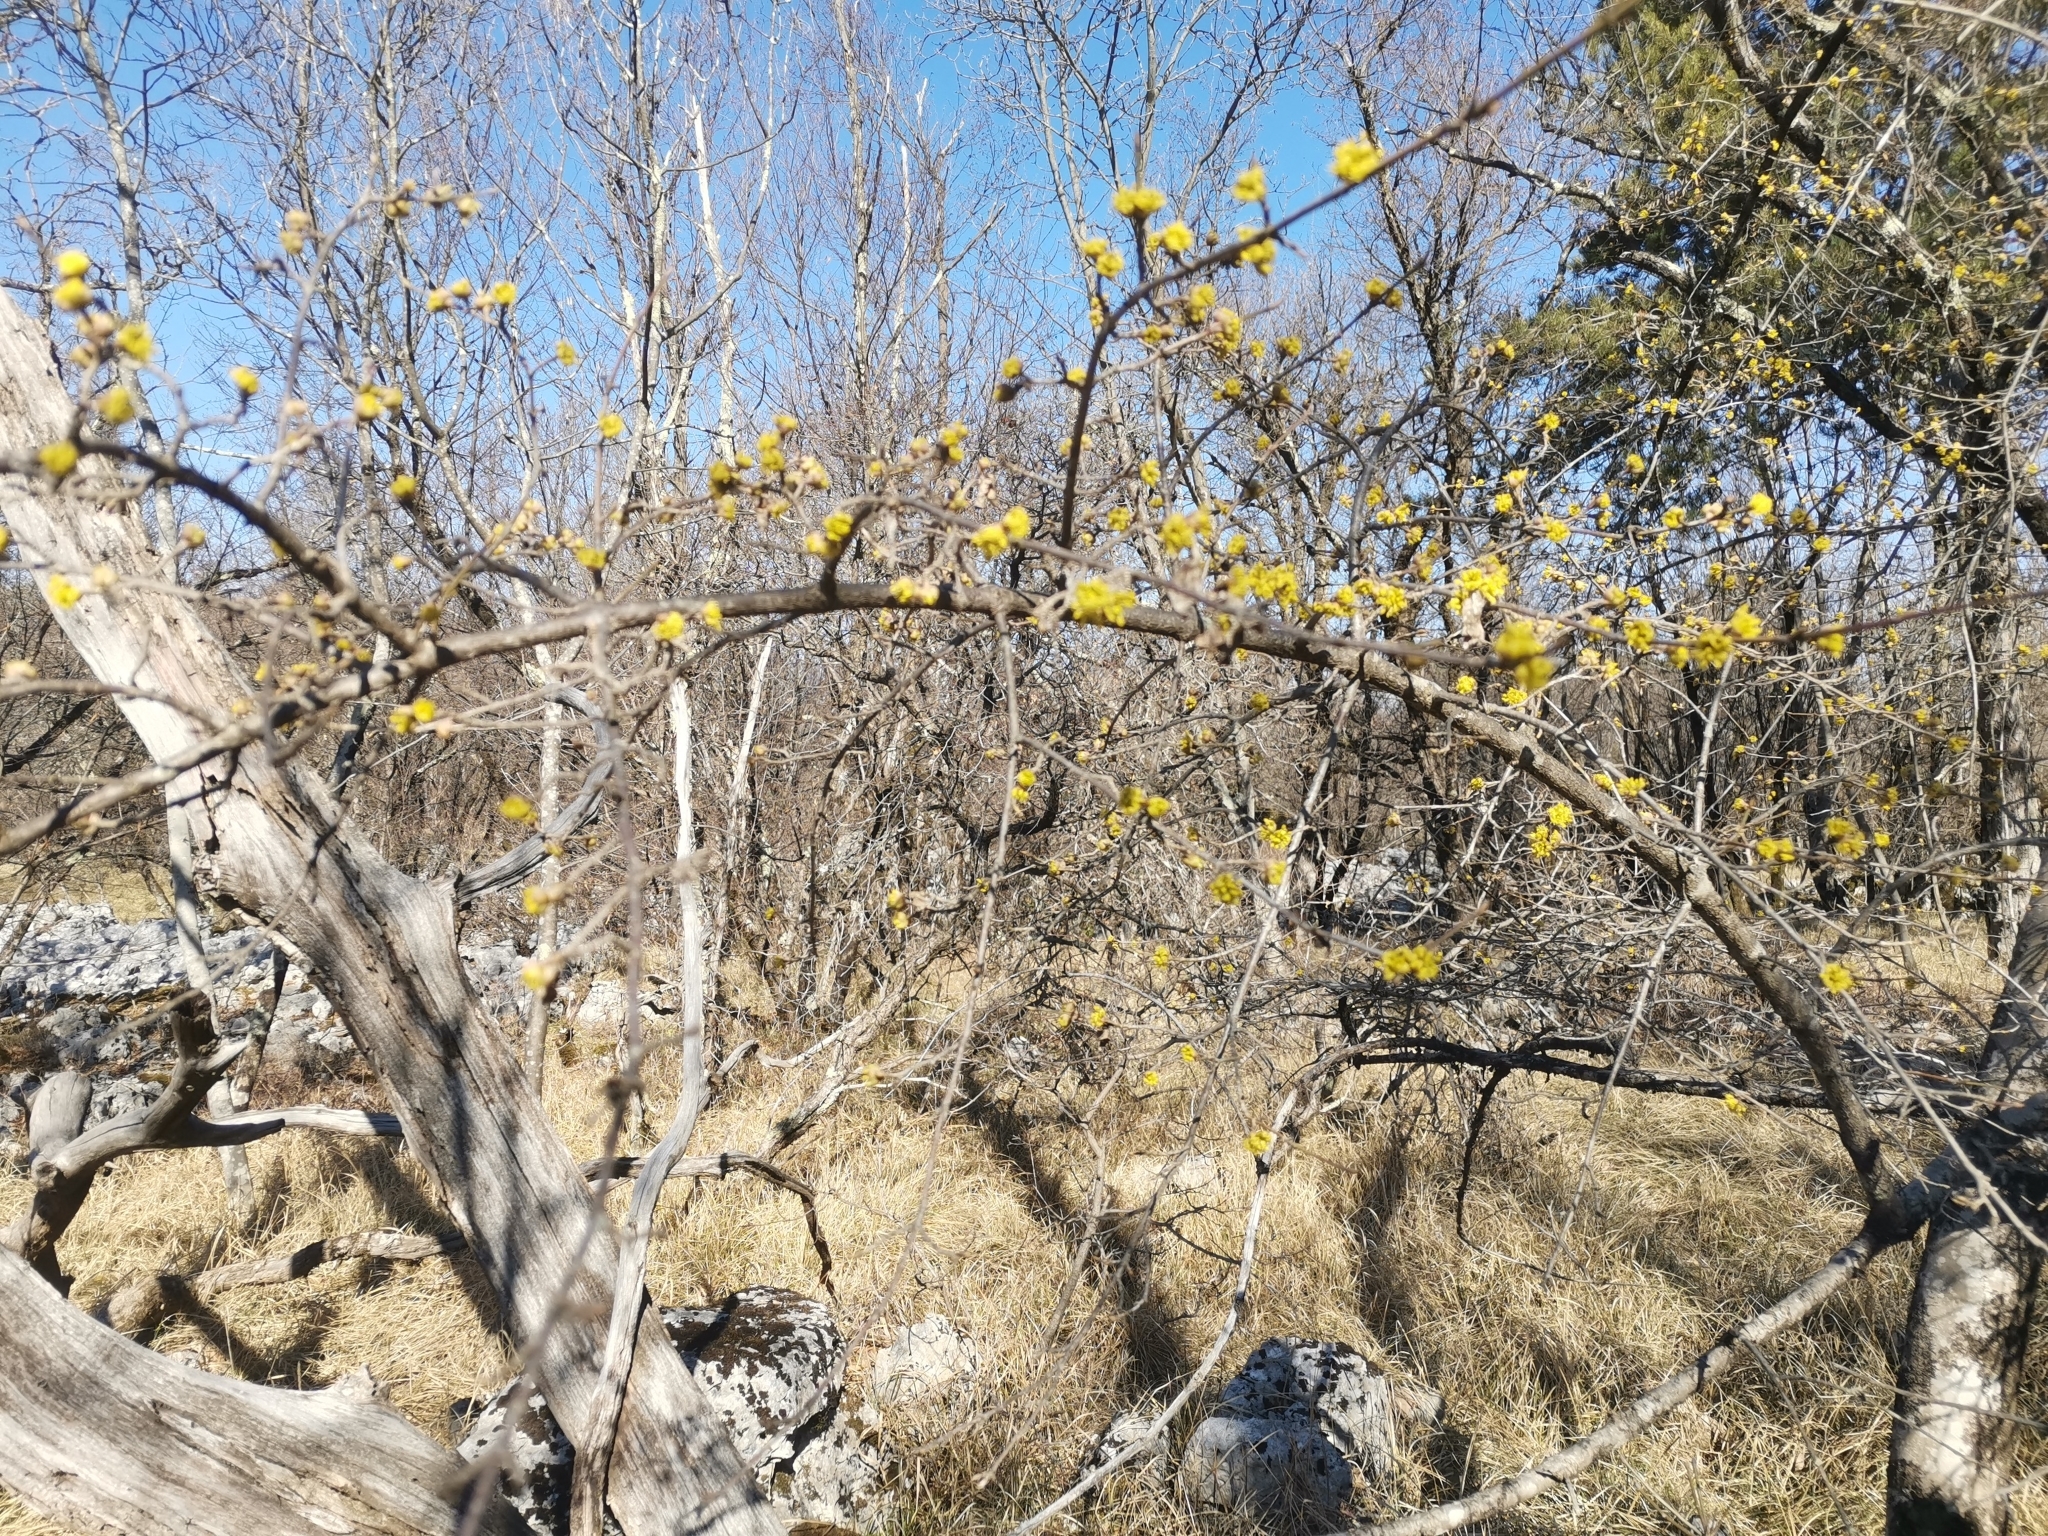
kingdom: Plantae
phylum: Tracheophyta
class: Magnoliopsida
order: Cornales
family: Cornaceae
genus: Cornus
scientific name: Cornus mas
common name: Cornelian-cherry
